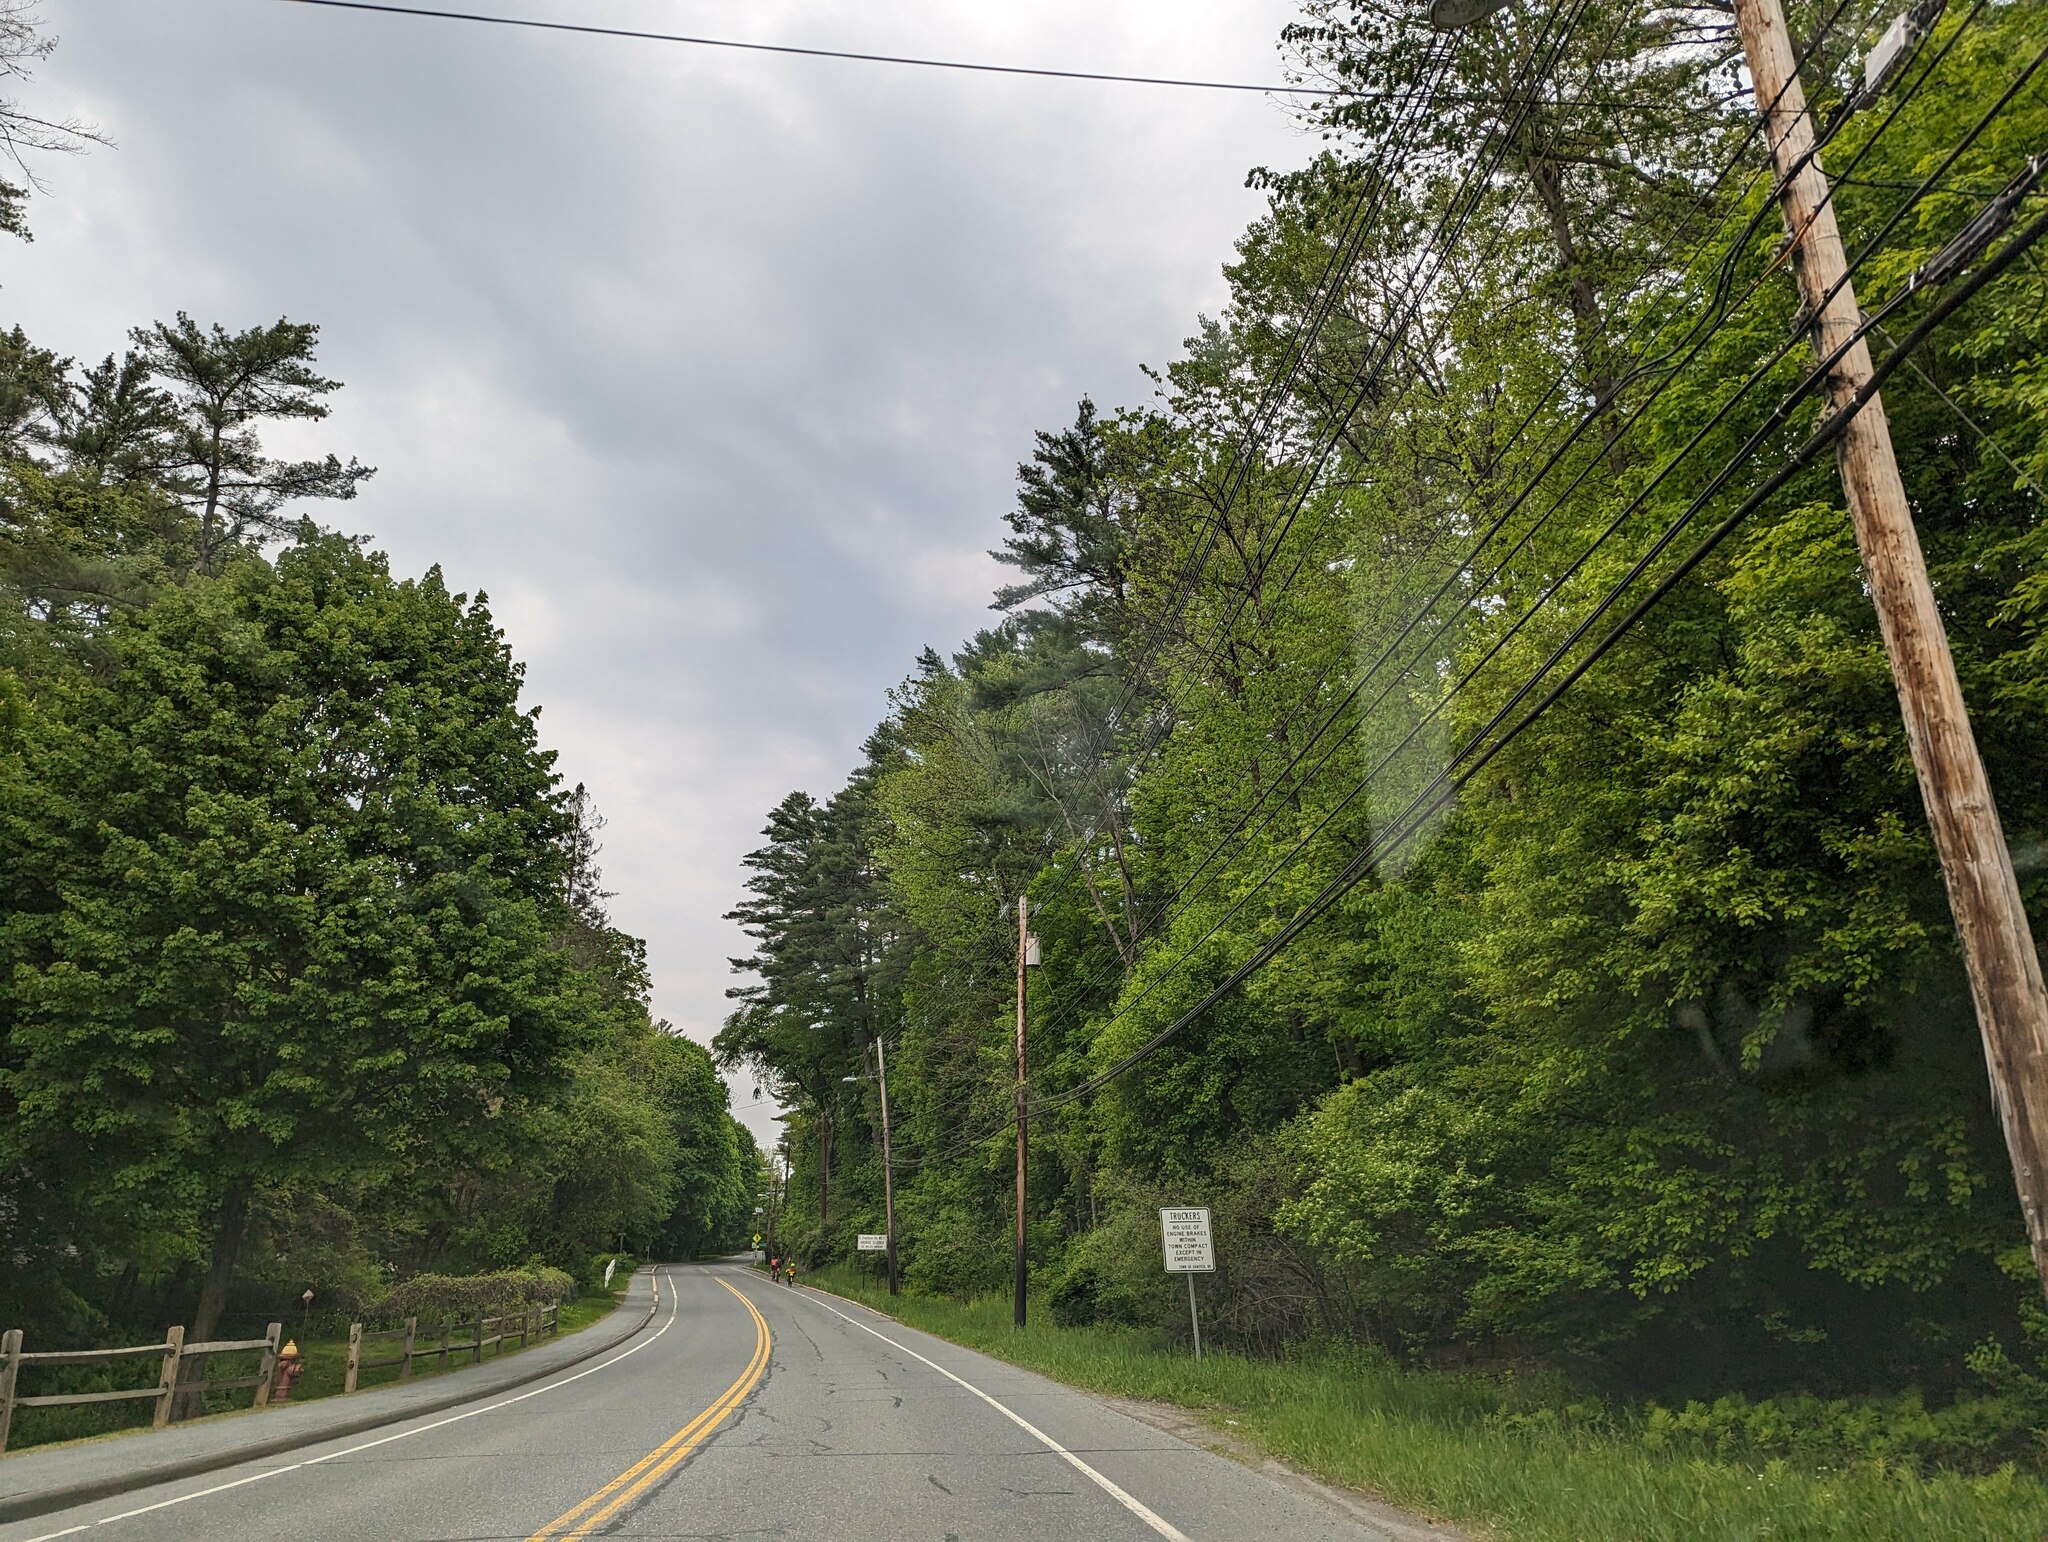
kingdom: Plantae
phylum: Tracheophyta
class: Pinopsida
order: Pinales
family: Pinaceae
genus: Pinus
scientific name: Pinus strobus
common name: Weymouth pine
